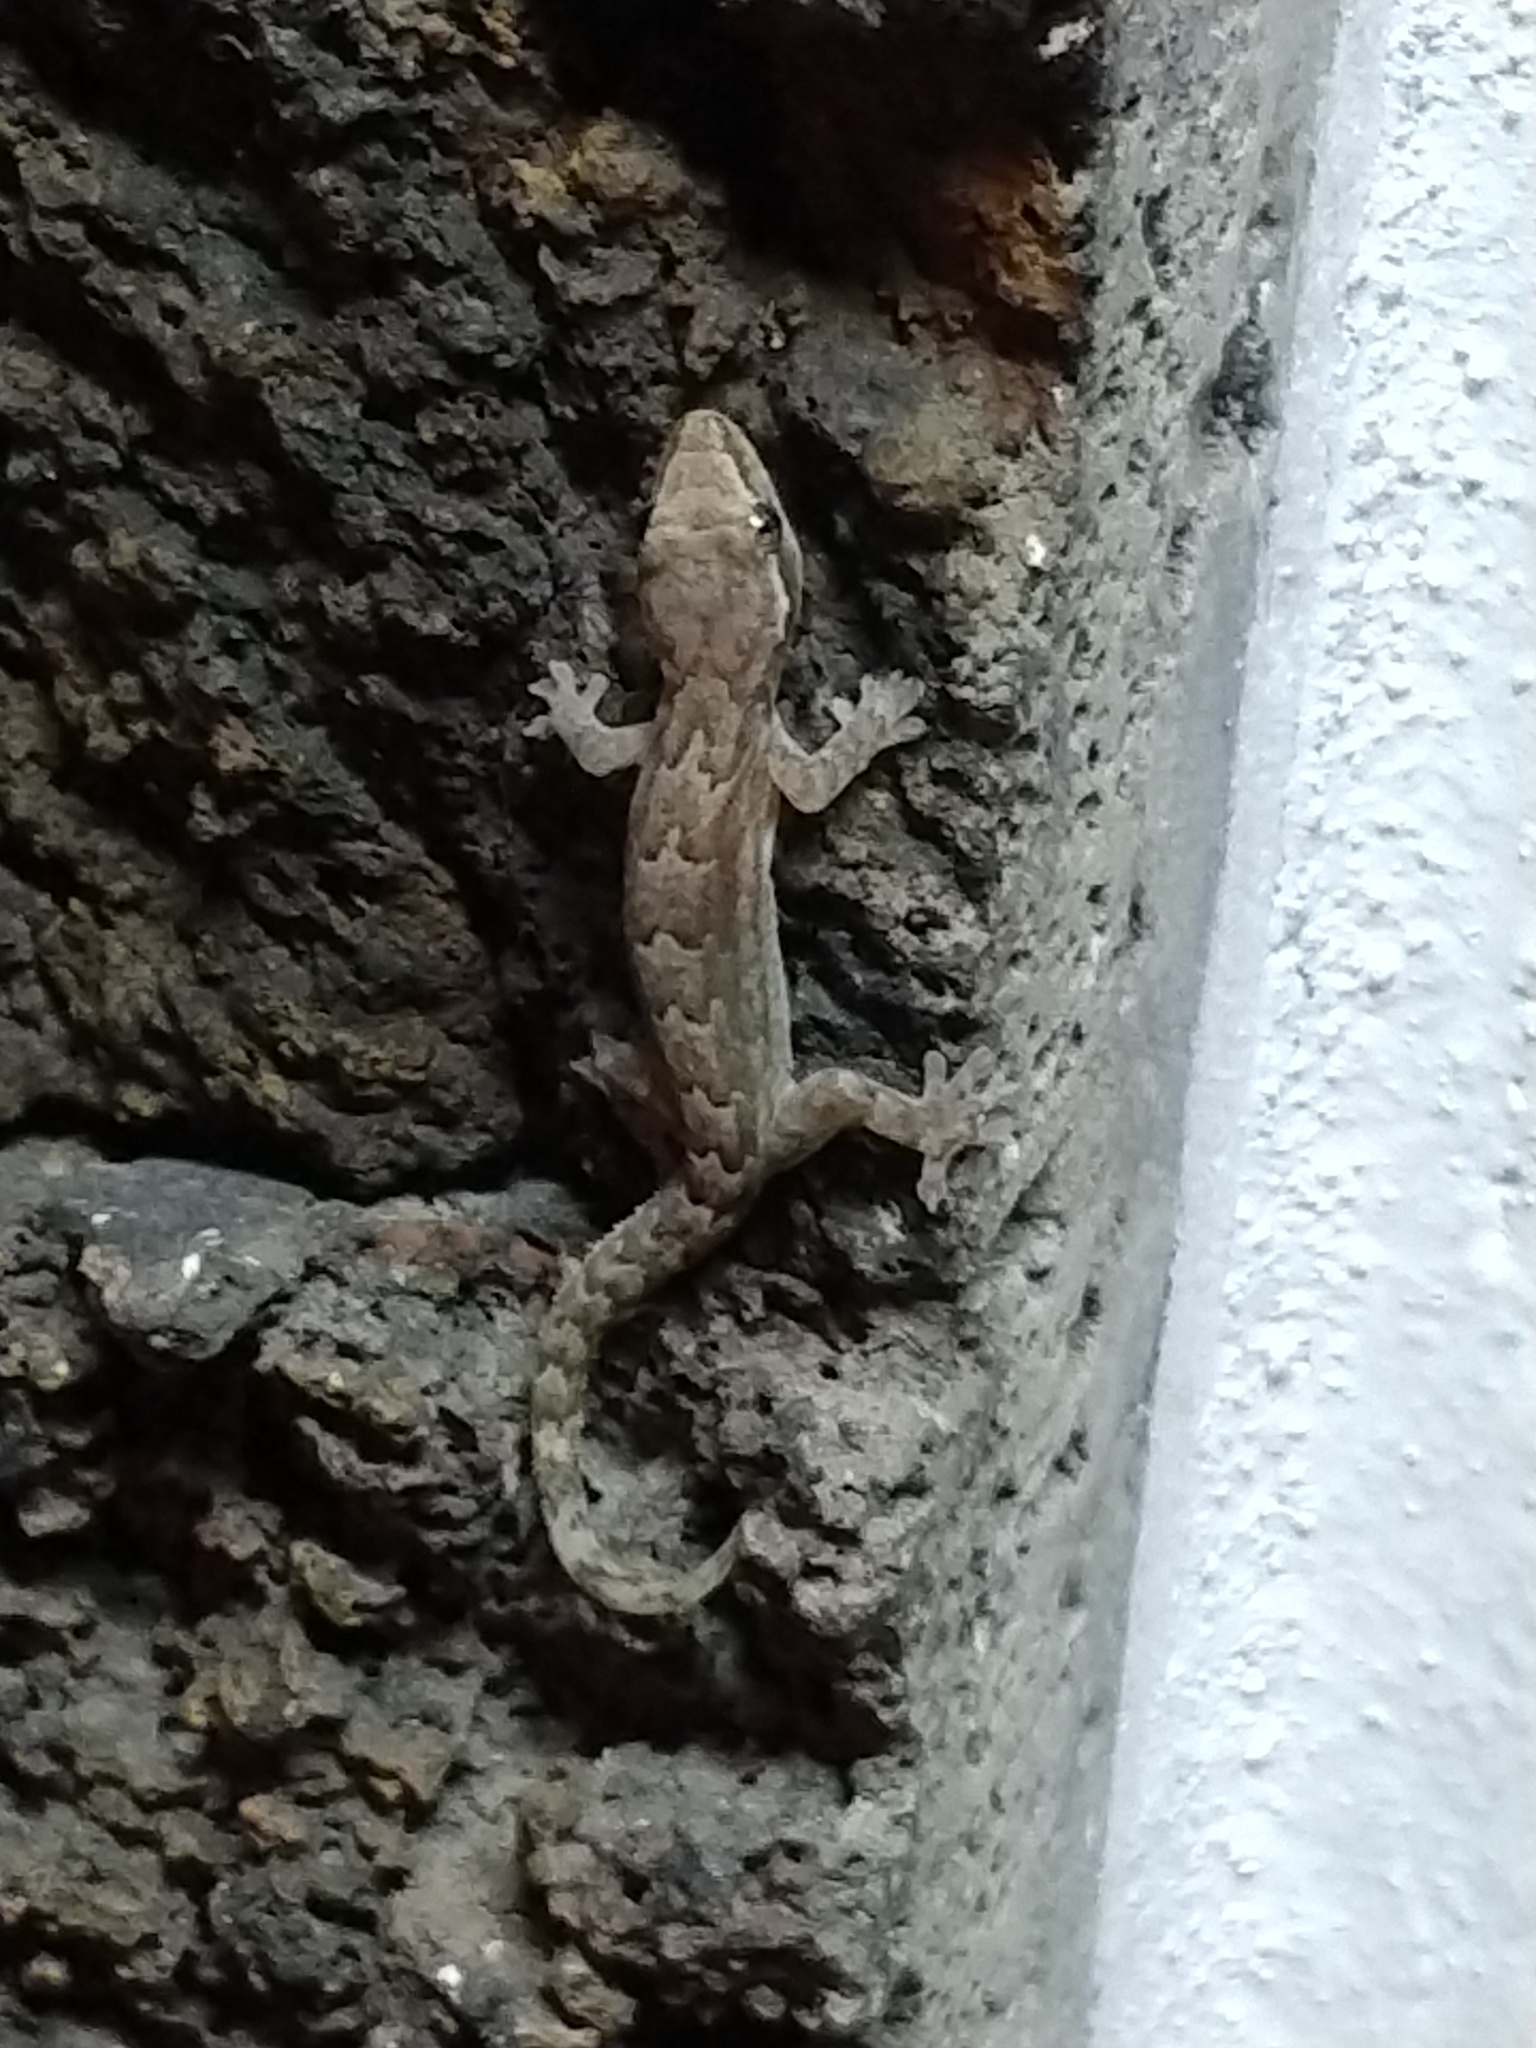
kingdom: Animalia
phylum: Chordata
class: Squamata
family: Gekkonidae
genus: Lepidodactylus
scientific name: Lepidodactylus lugubris
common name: Mourning gecko
